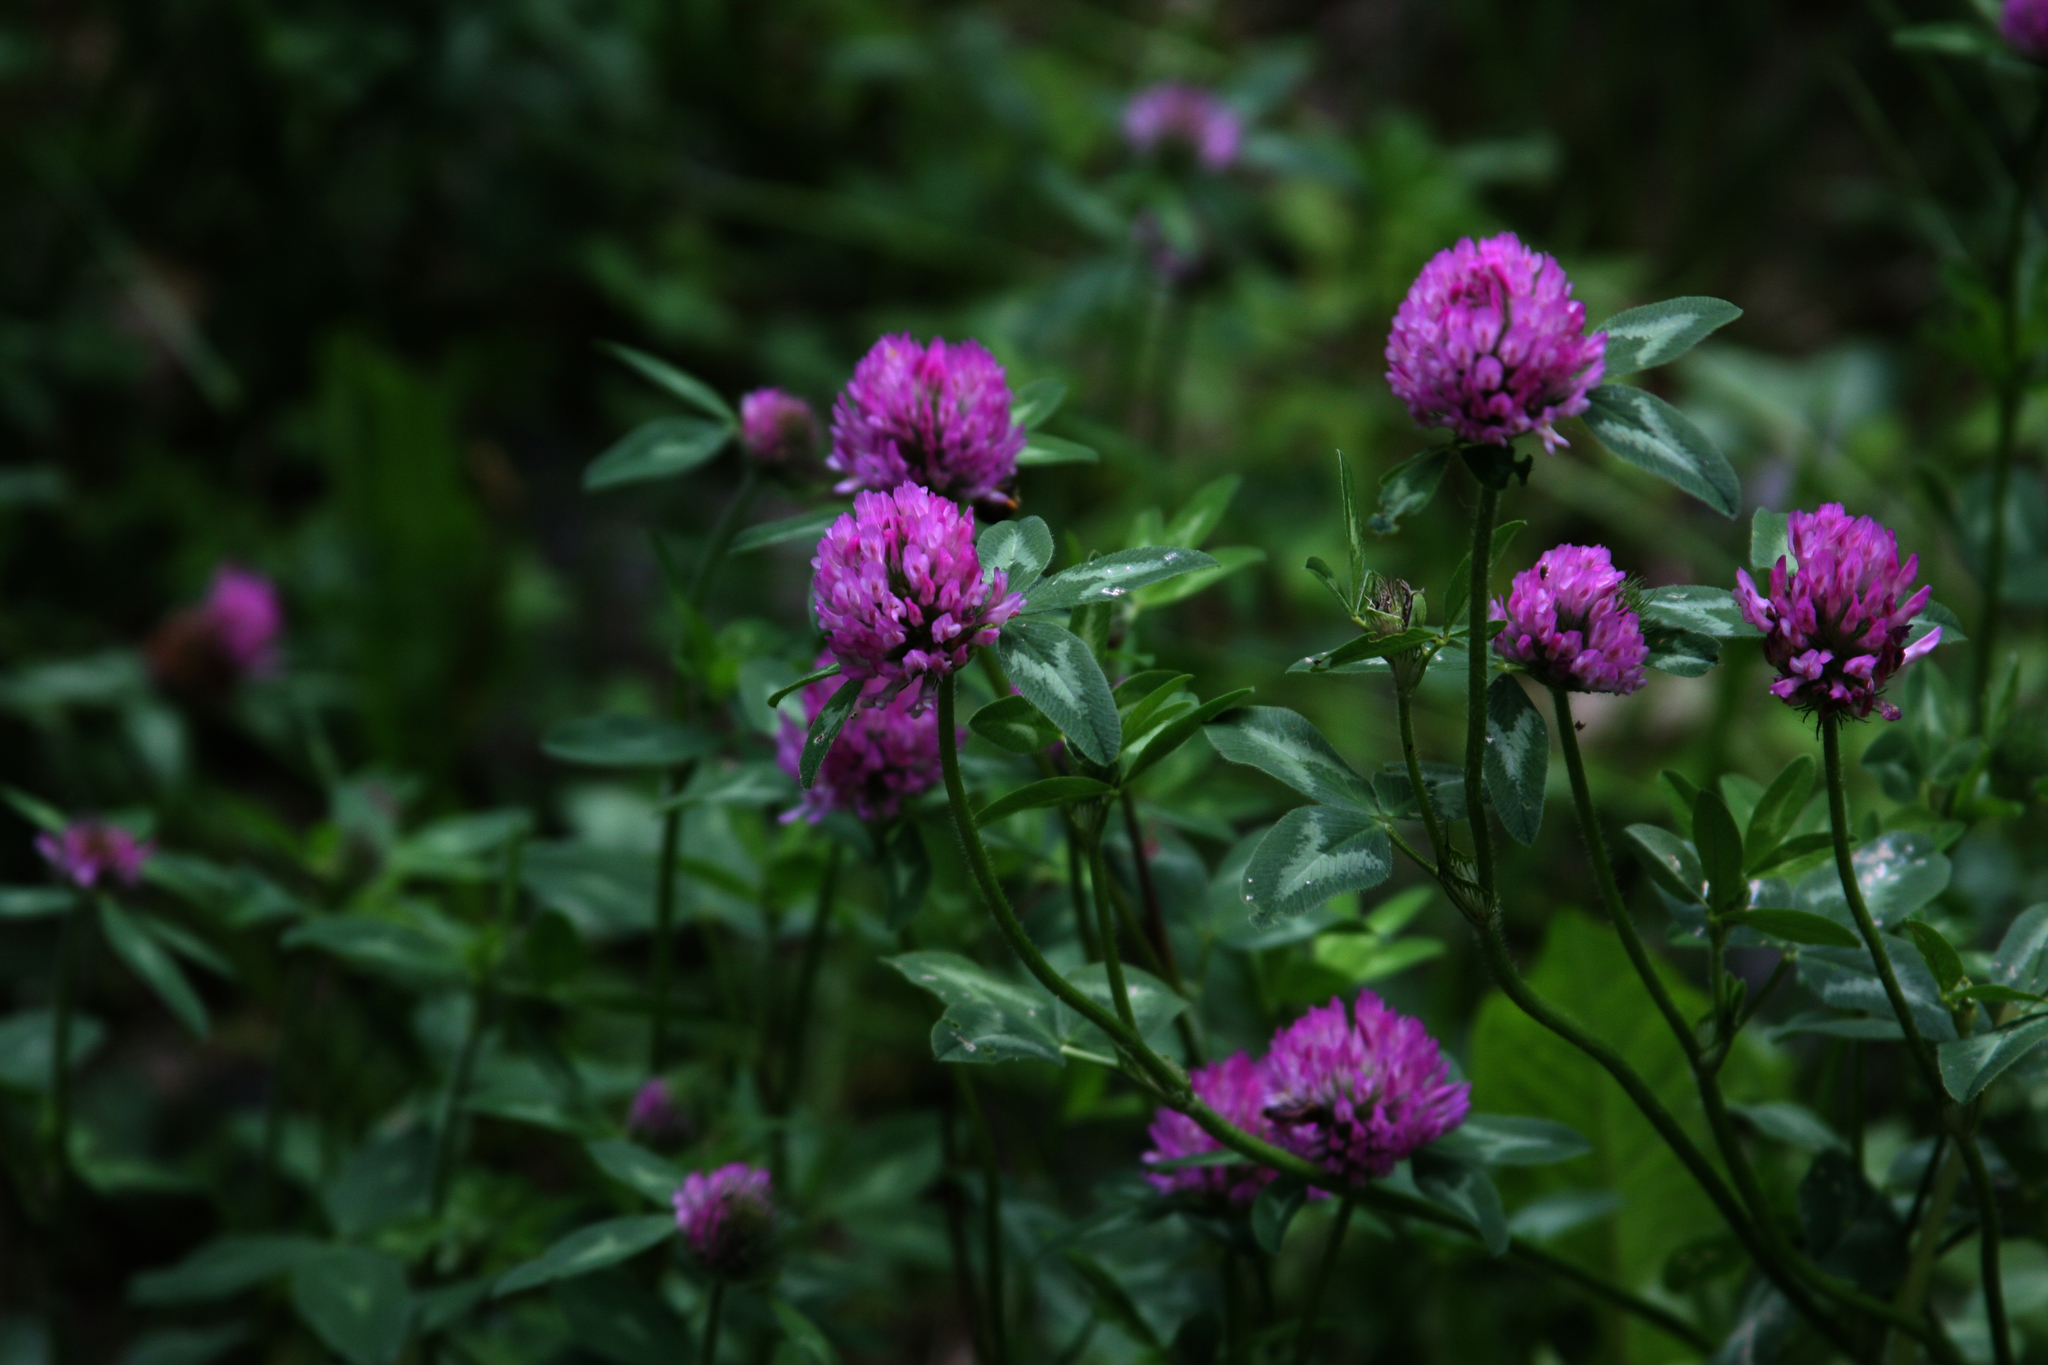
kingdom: Plantae
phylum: Tracheophyta
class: Magnoliopsida
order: Fabales
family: Fabaceae
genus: Trifolium
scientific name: Trifolium pratense
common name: Red clover
